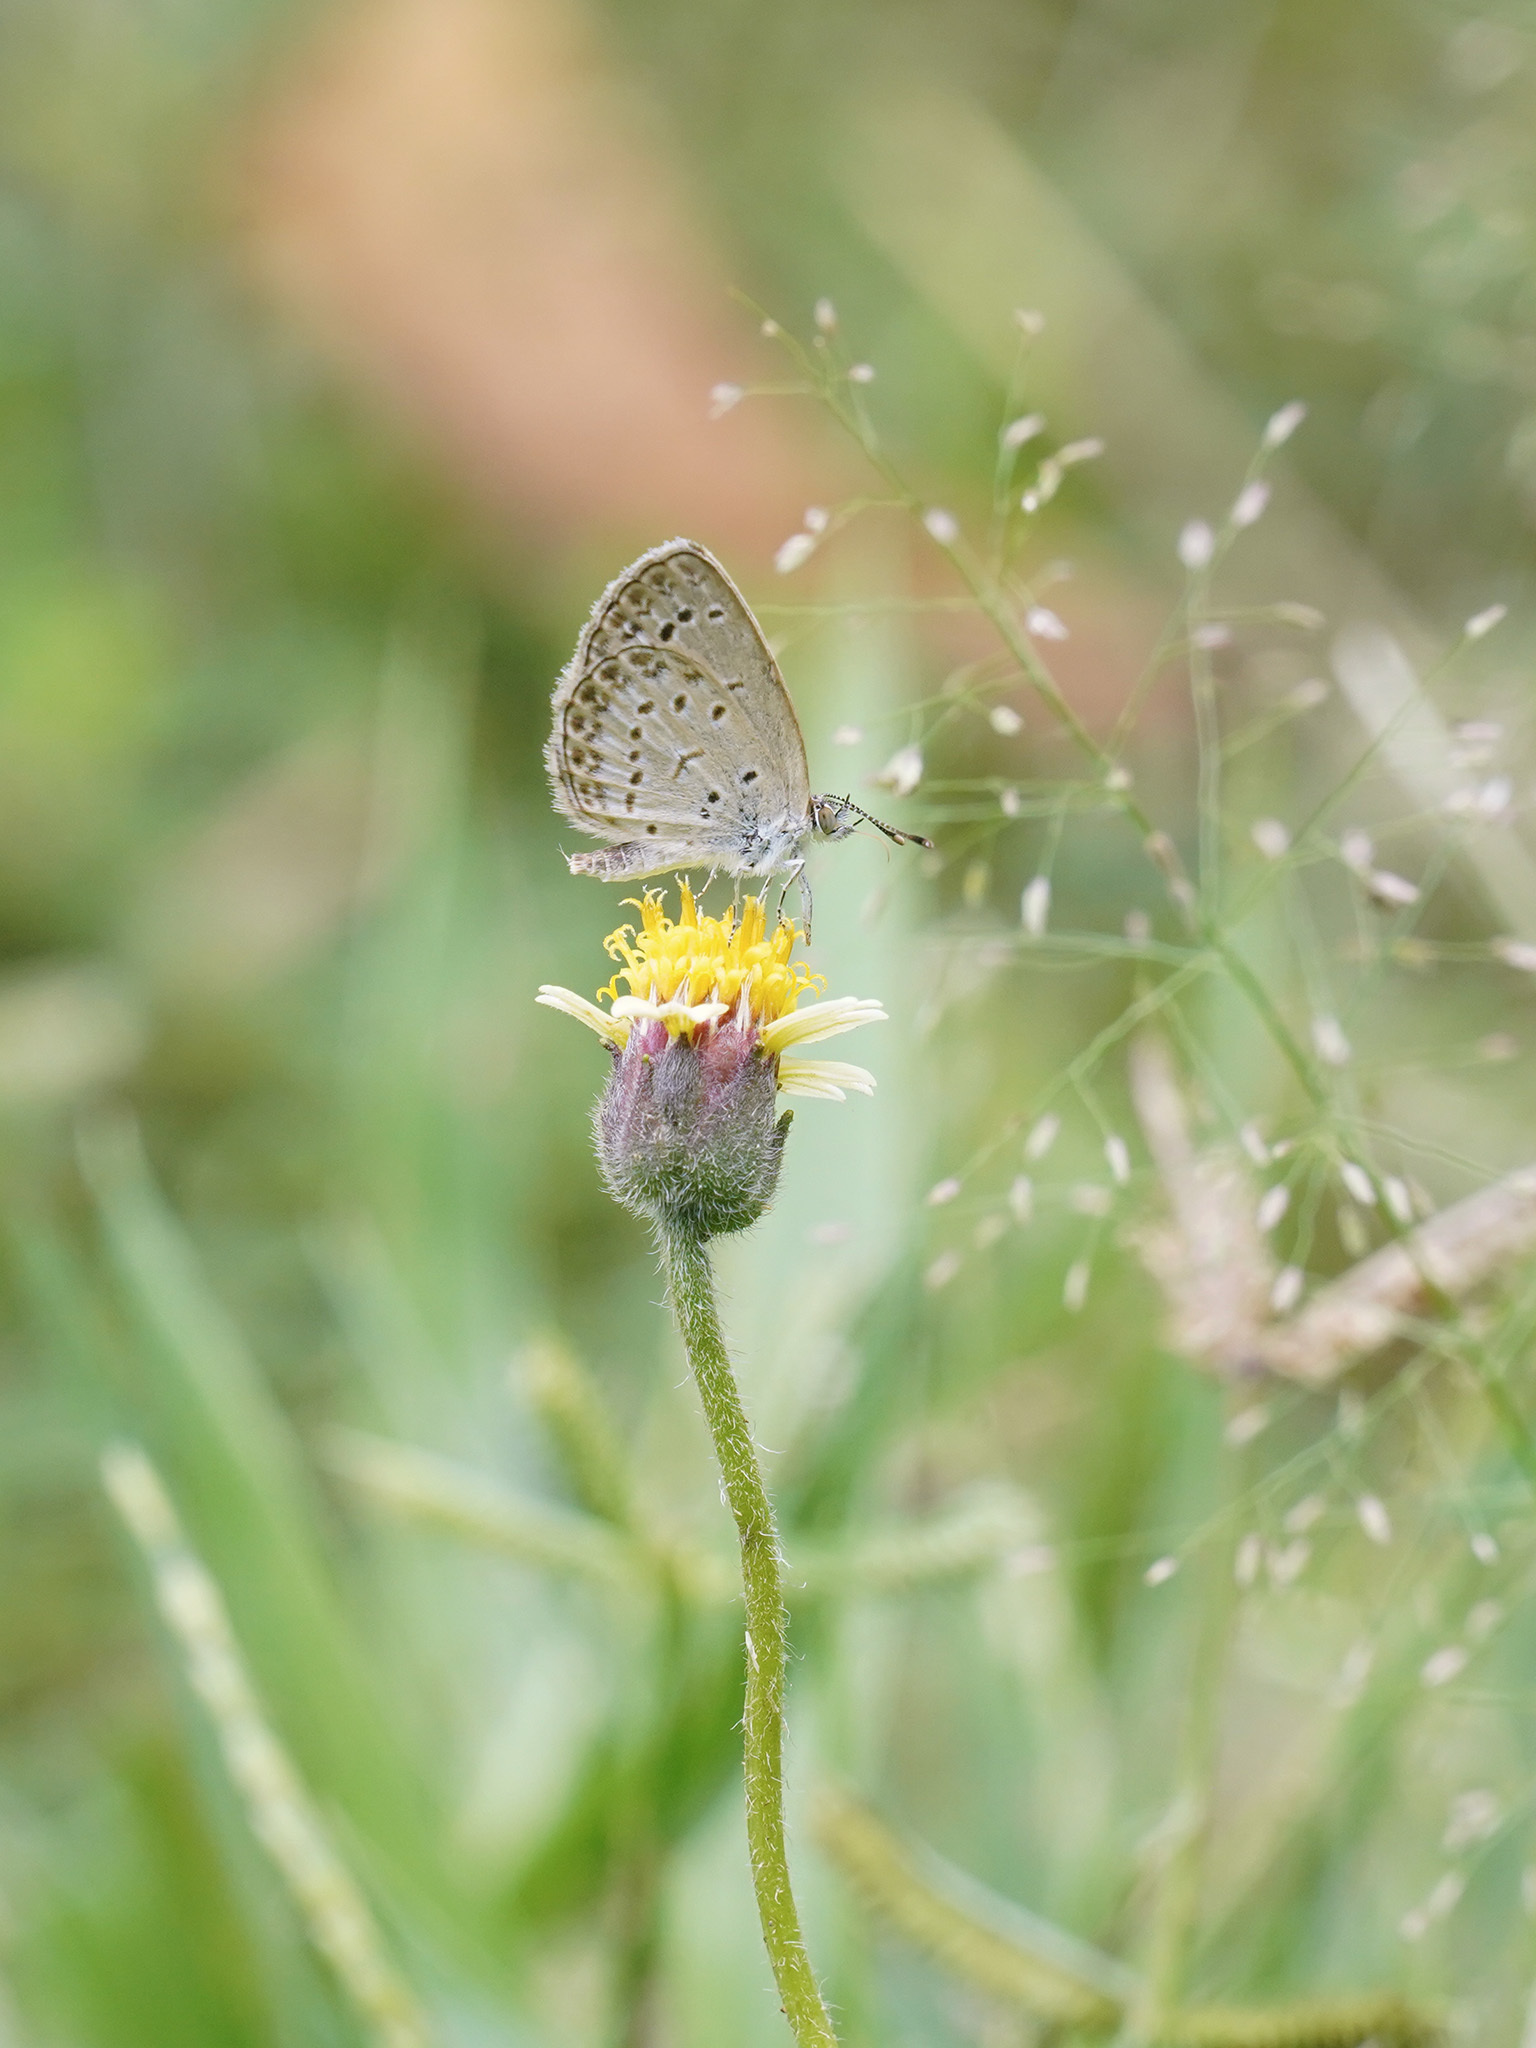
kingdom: Animalia
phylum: Arthropoda
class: Insecta
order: Lepidoptera
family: Lycaenidae
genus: Pseudozizeeria
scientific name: Pseudozizeeria maha
